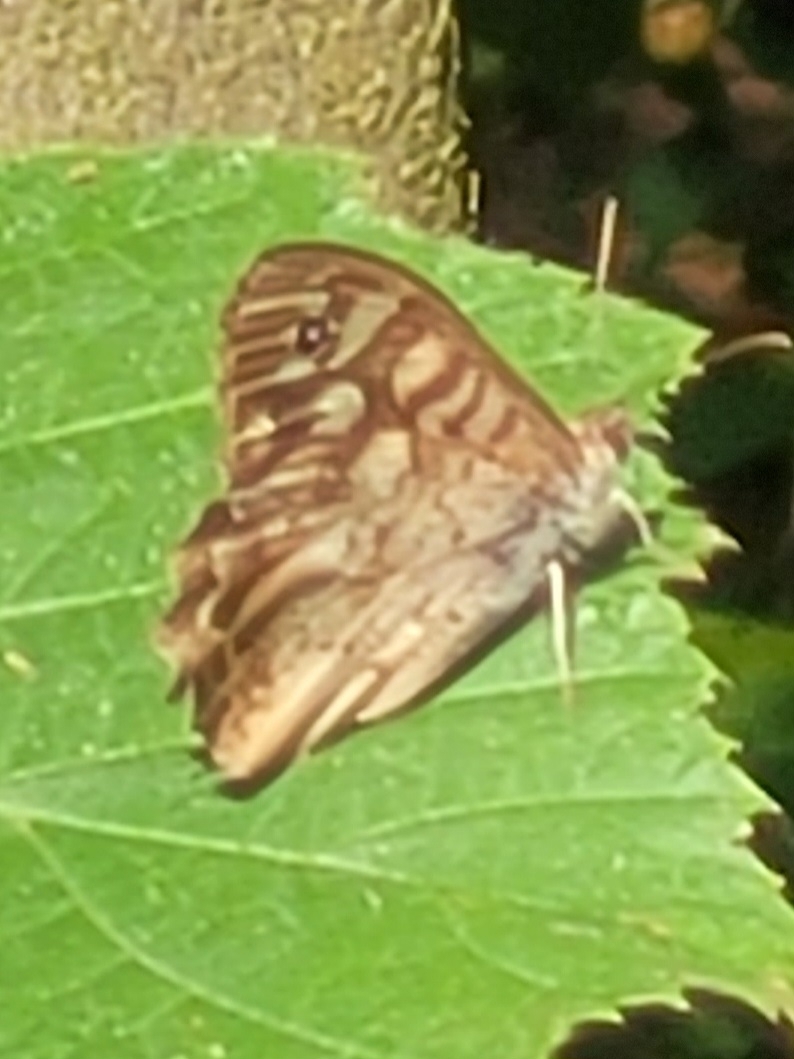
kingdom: Animalia
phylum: Arthropoda
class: Insecta
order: Lepidoptera
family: Nymphalidae
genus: Pararge
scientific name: Pararge aegeria
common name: Speckled wood
